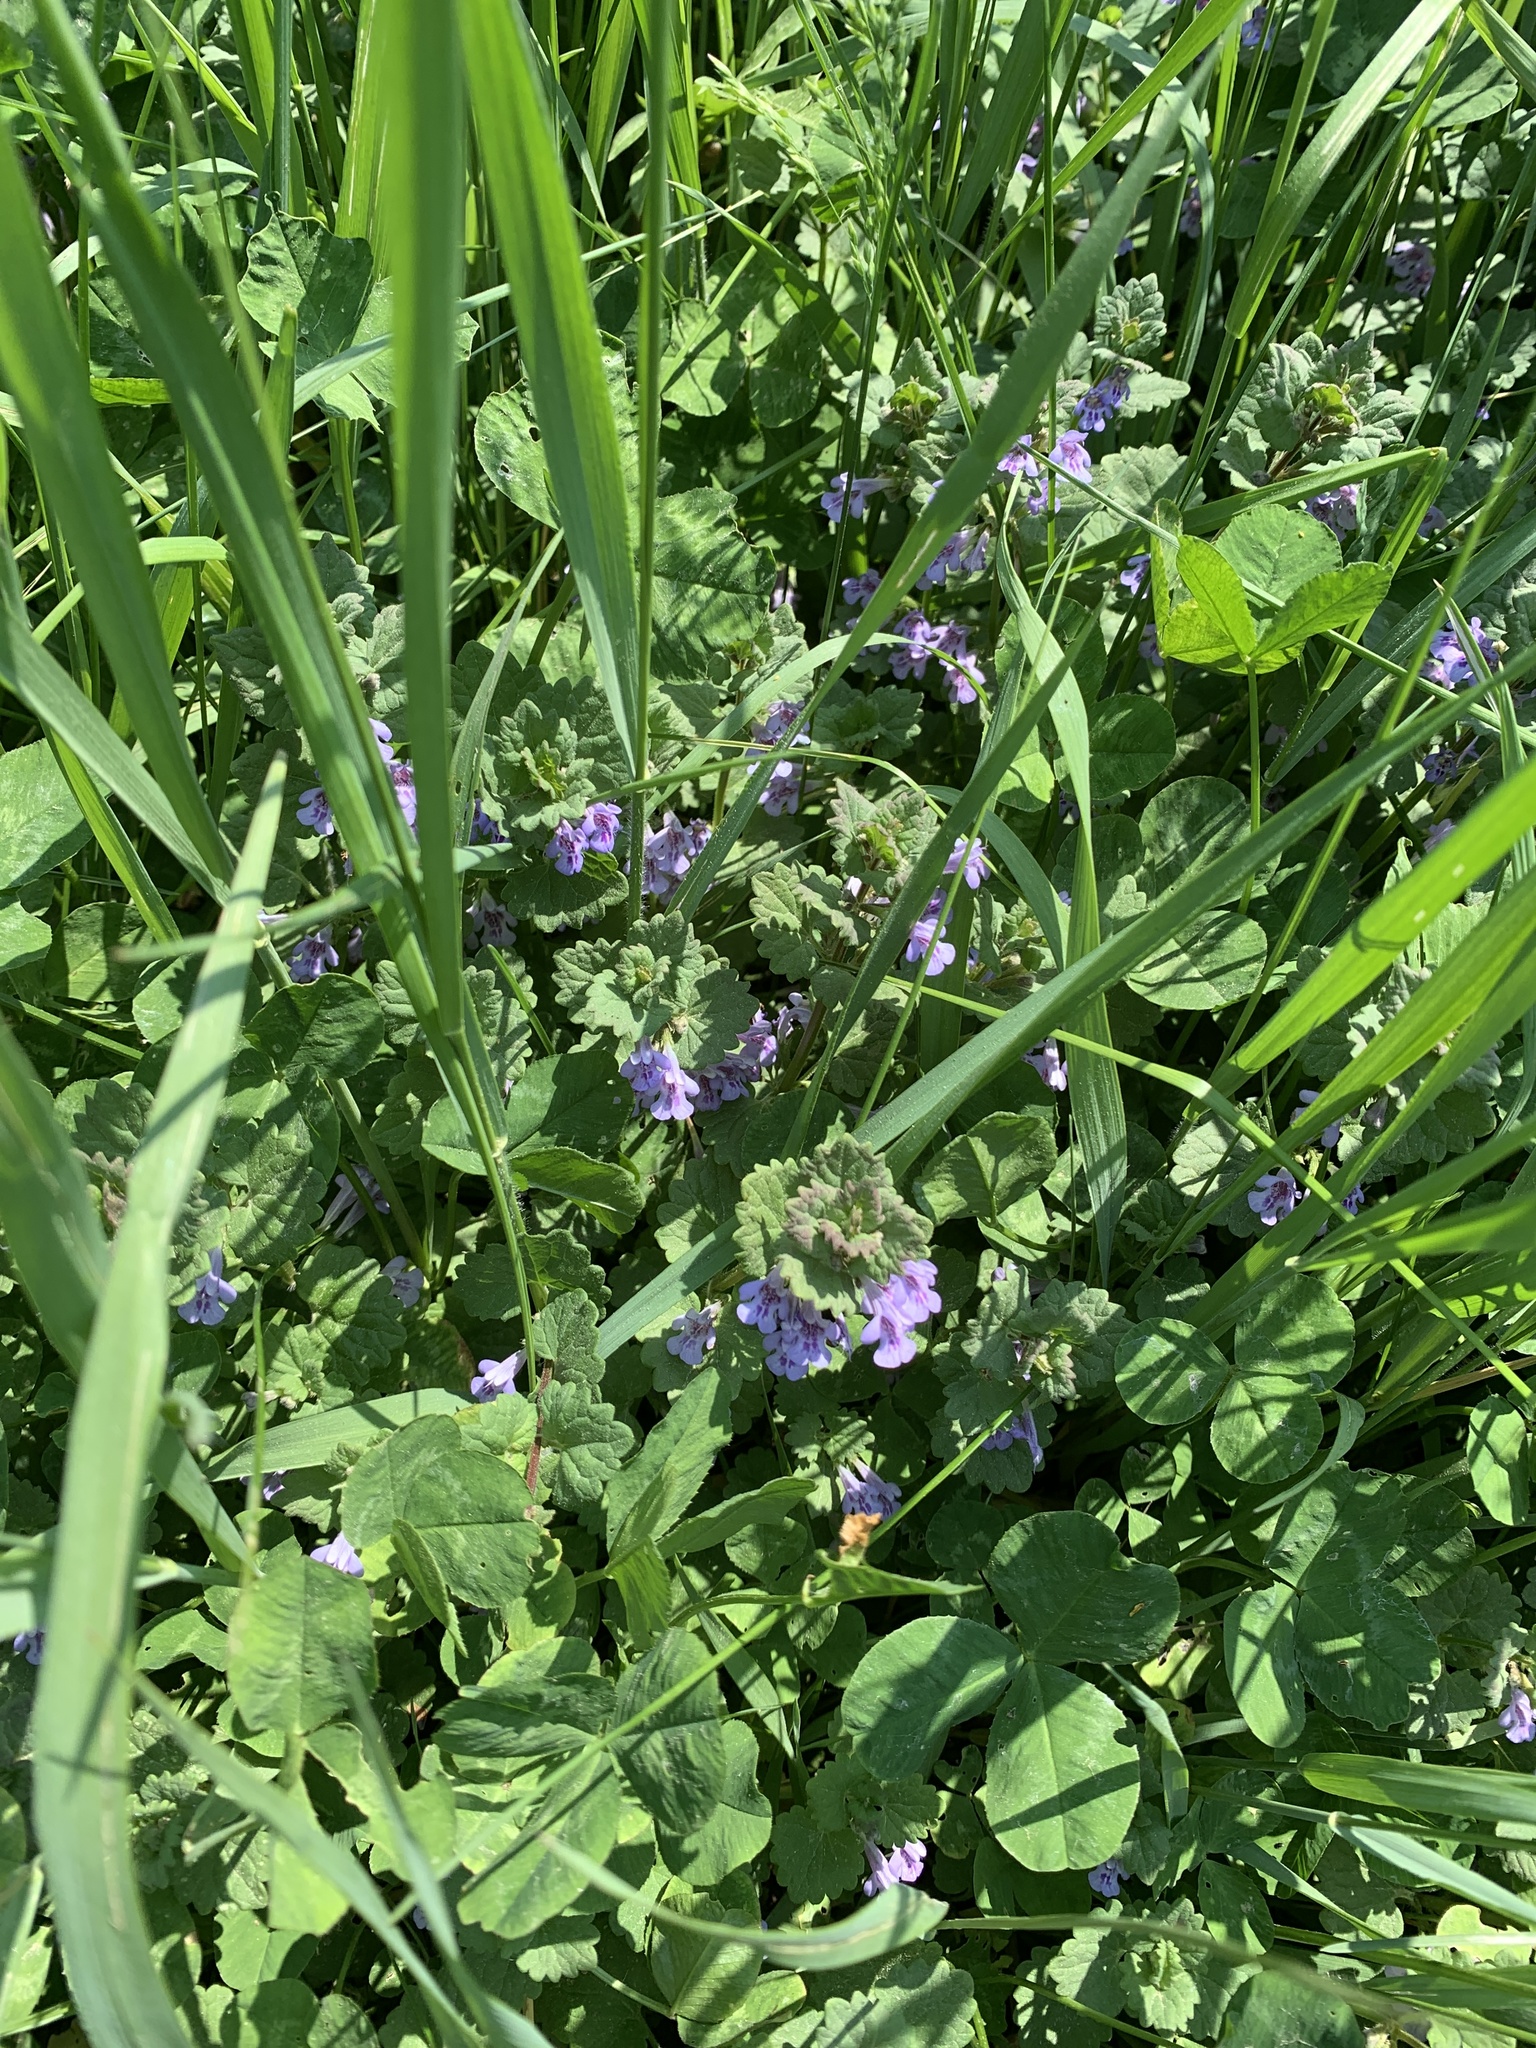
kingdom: Plantae
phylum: Tracheophyta
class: Magnoliopsida
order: Lamiales
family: Lamiaceae
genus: Glechoma
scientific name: Glechoma hederacea
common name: Ground ivy
